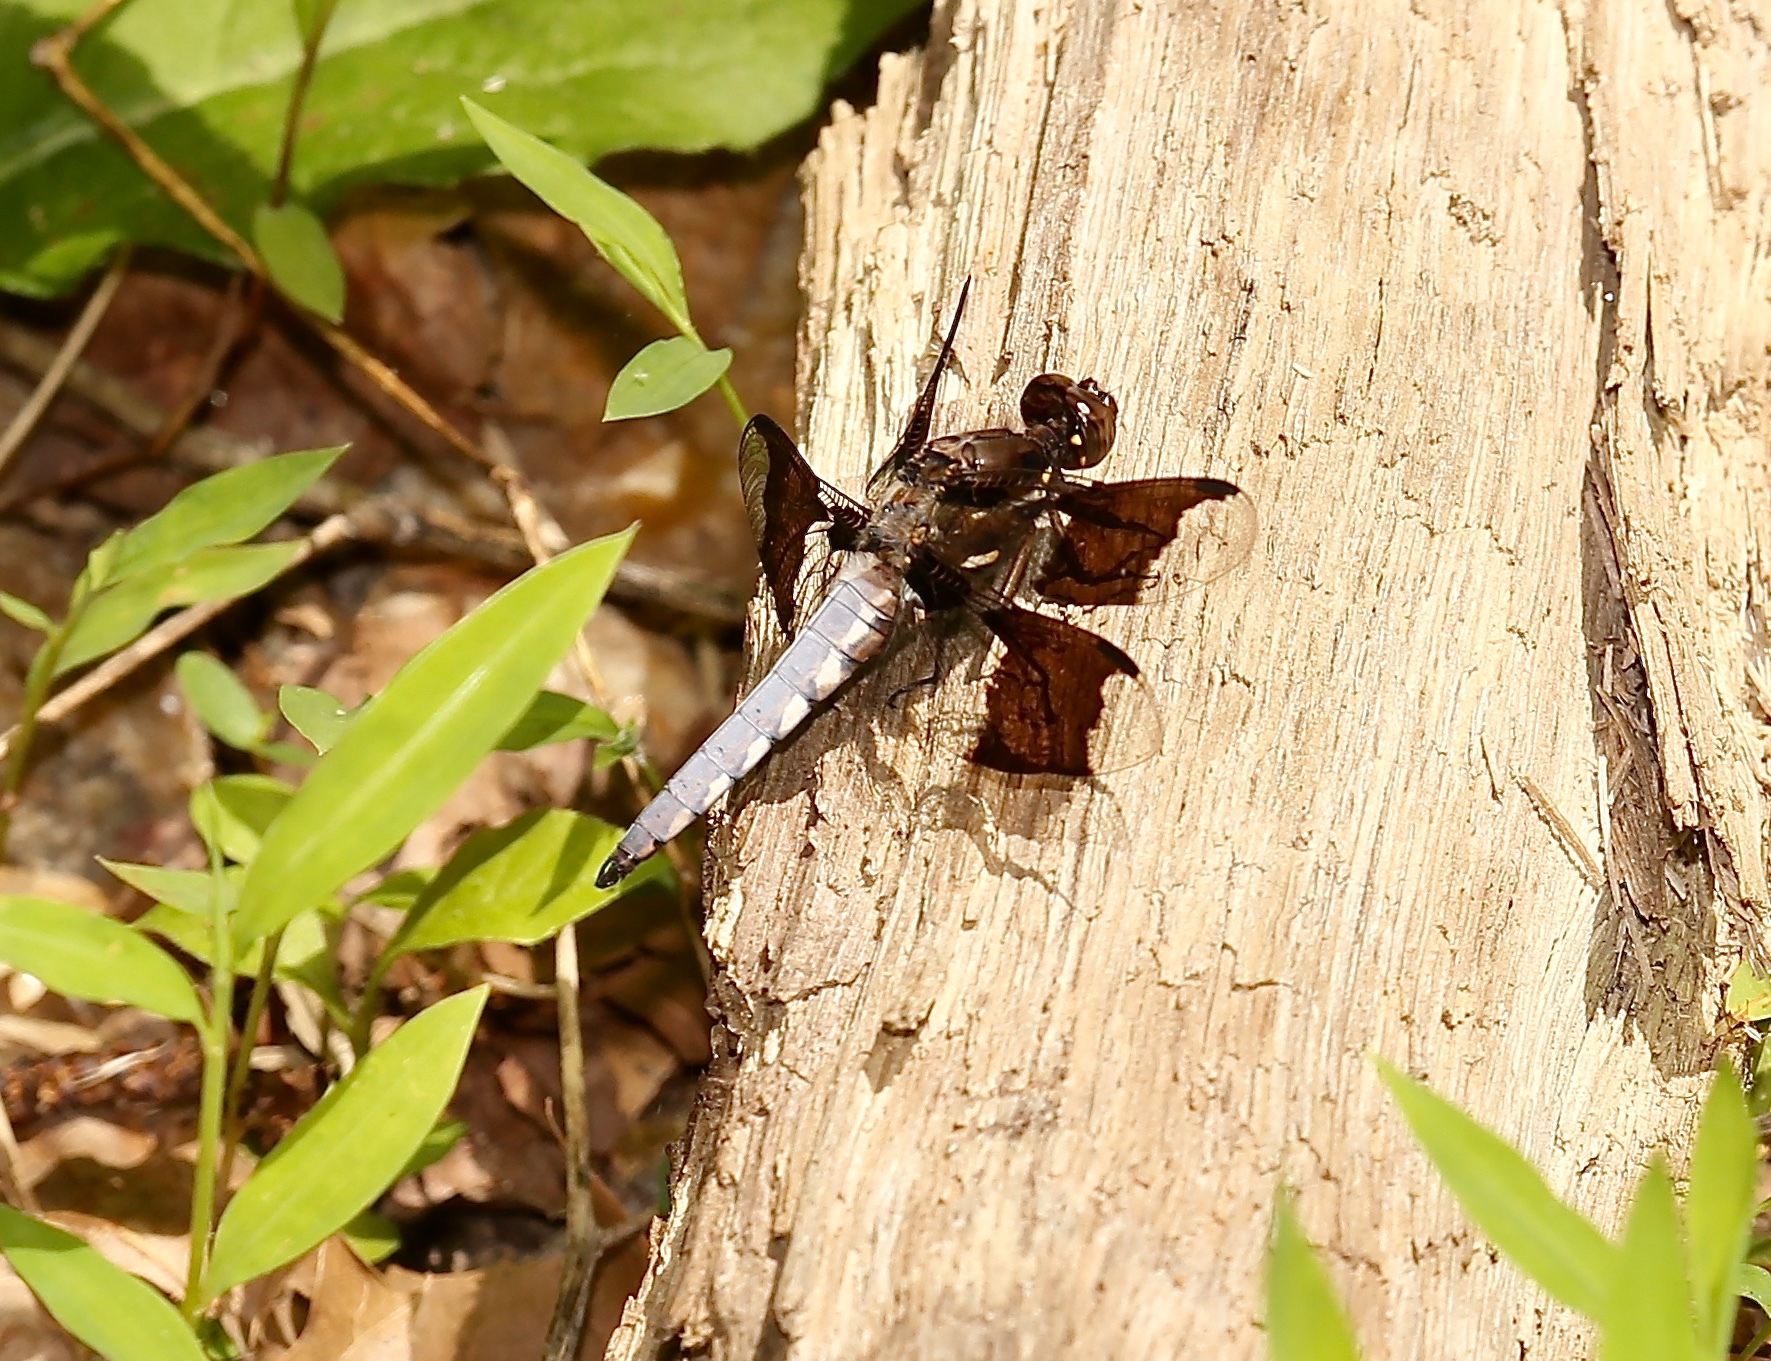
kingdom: Animalia
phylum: Arthropoda
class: Insecta
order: Odonata
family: Libellulidae
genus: Plathemis
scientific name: Plathemis lydia
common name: Common whitetail
